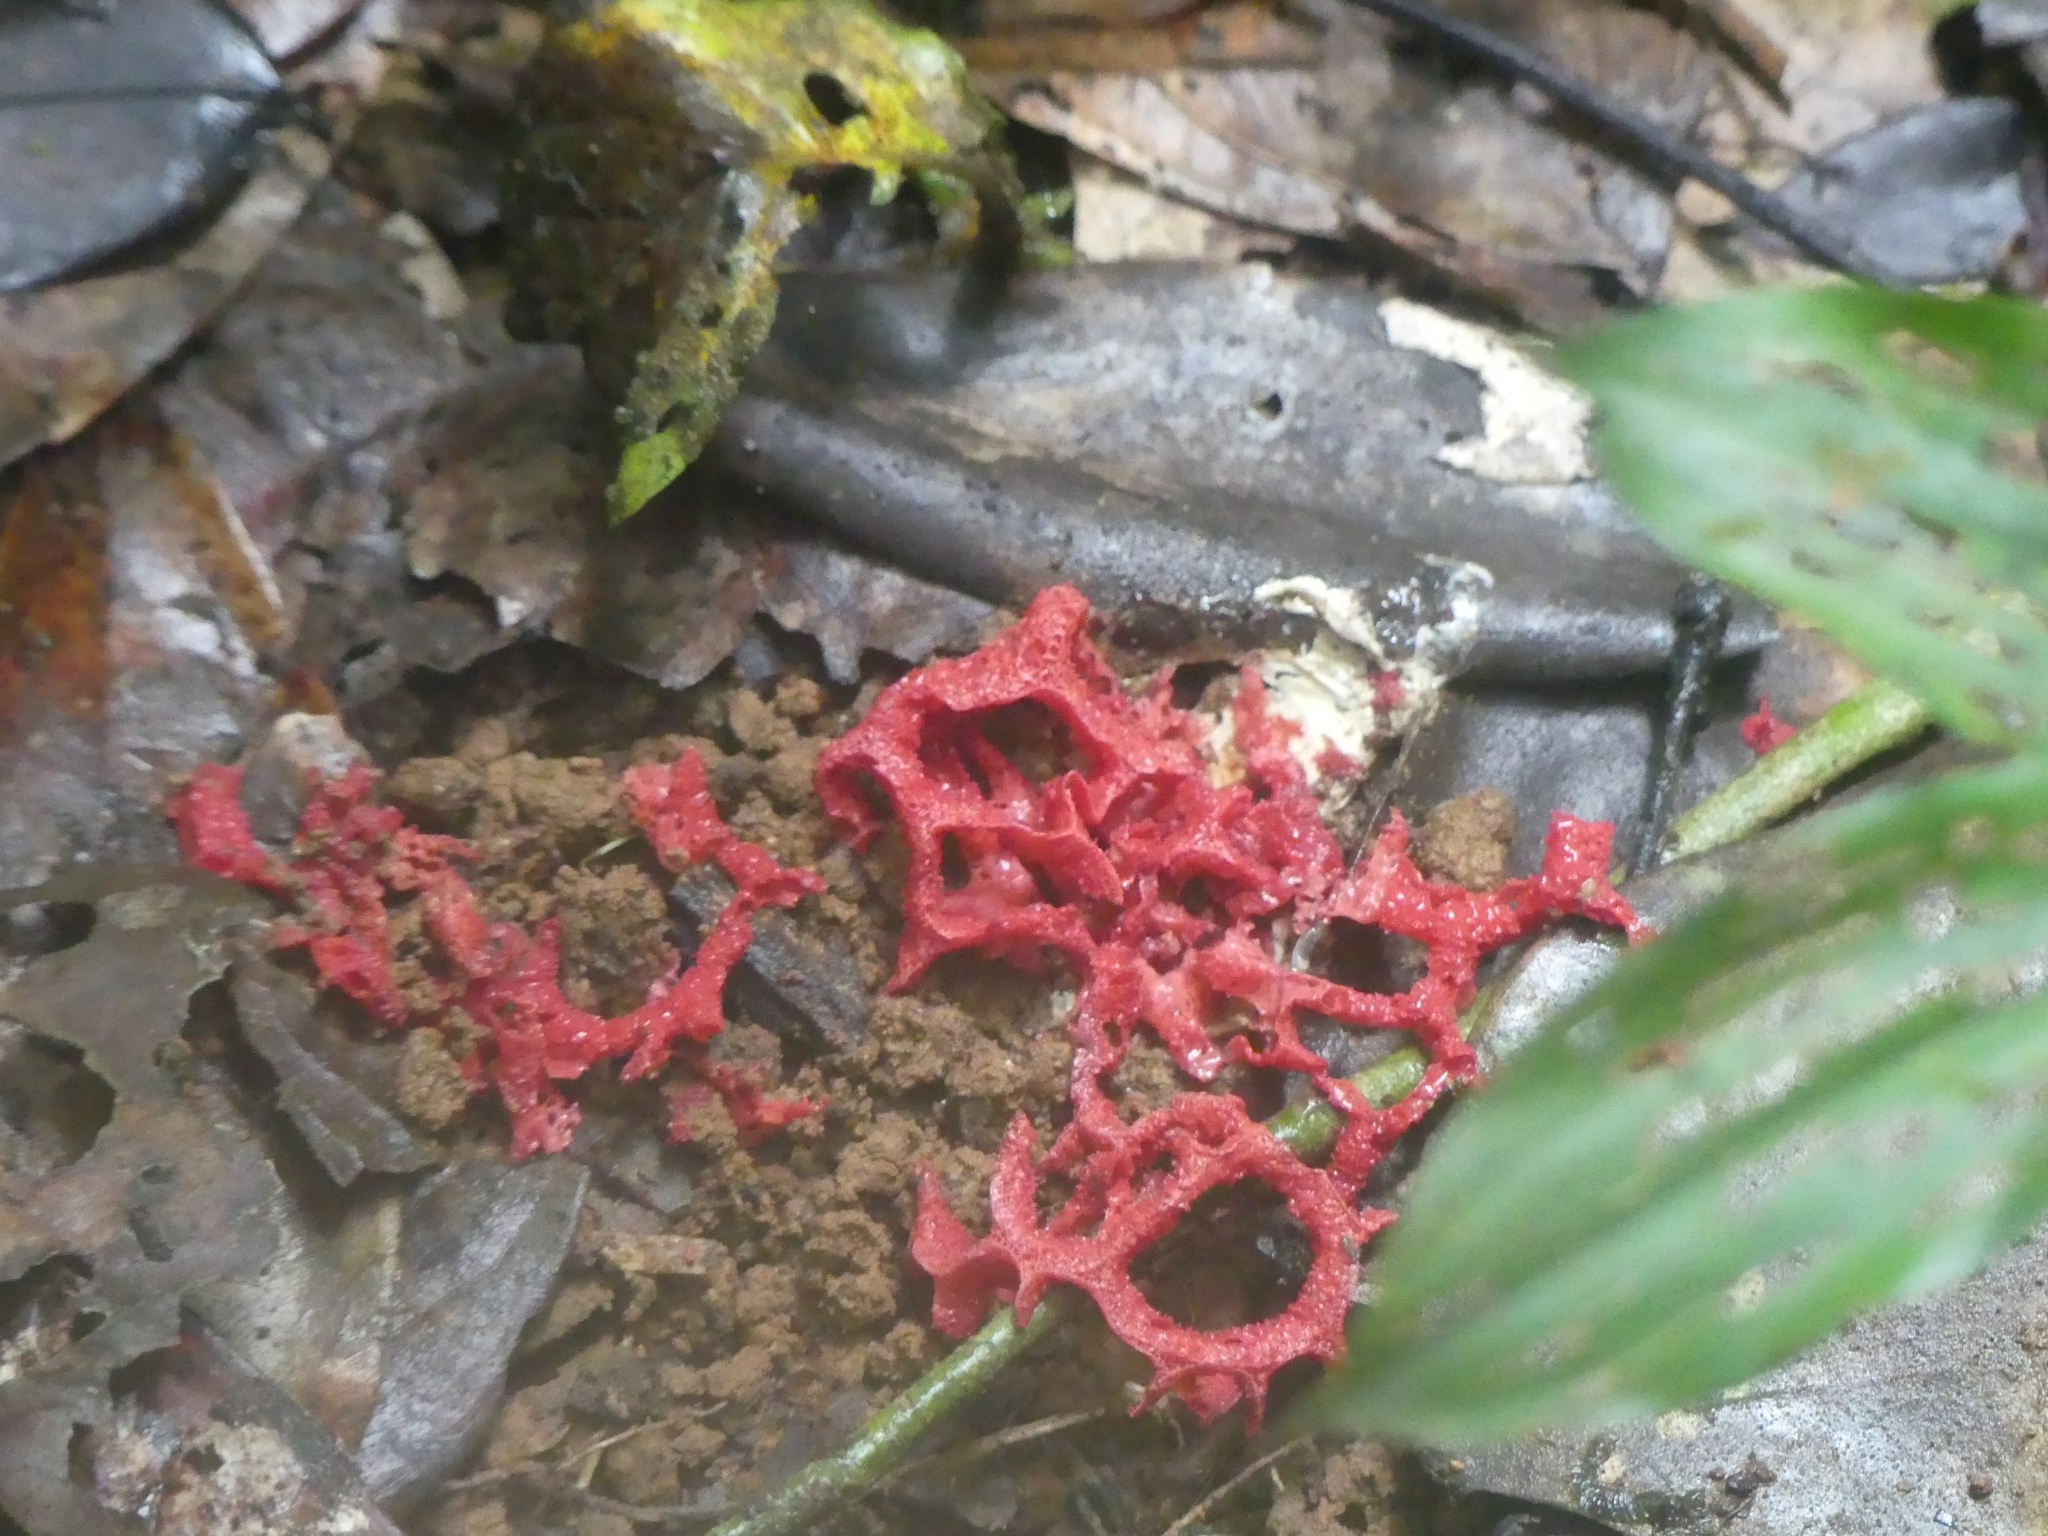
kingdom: Fungi
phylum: Basidiomycota
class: Agaricomycetes
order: Phallales
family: Phallaceae
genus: Clathrus
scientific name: Clathrus
